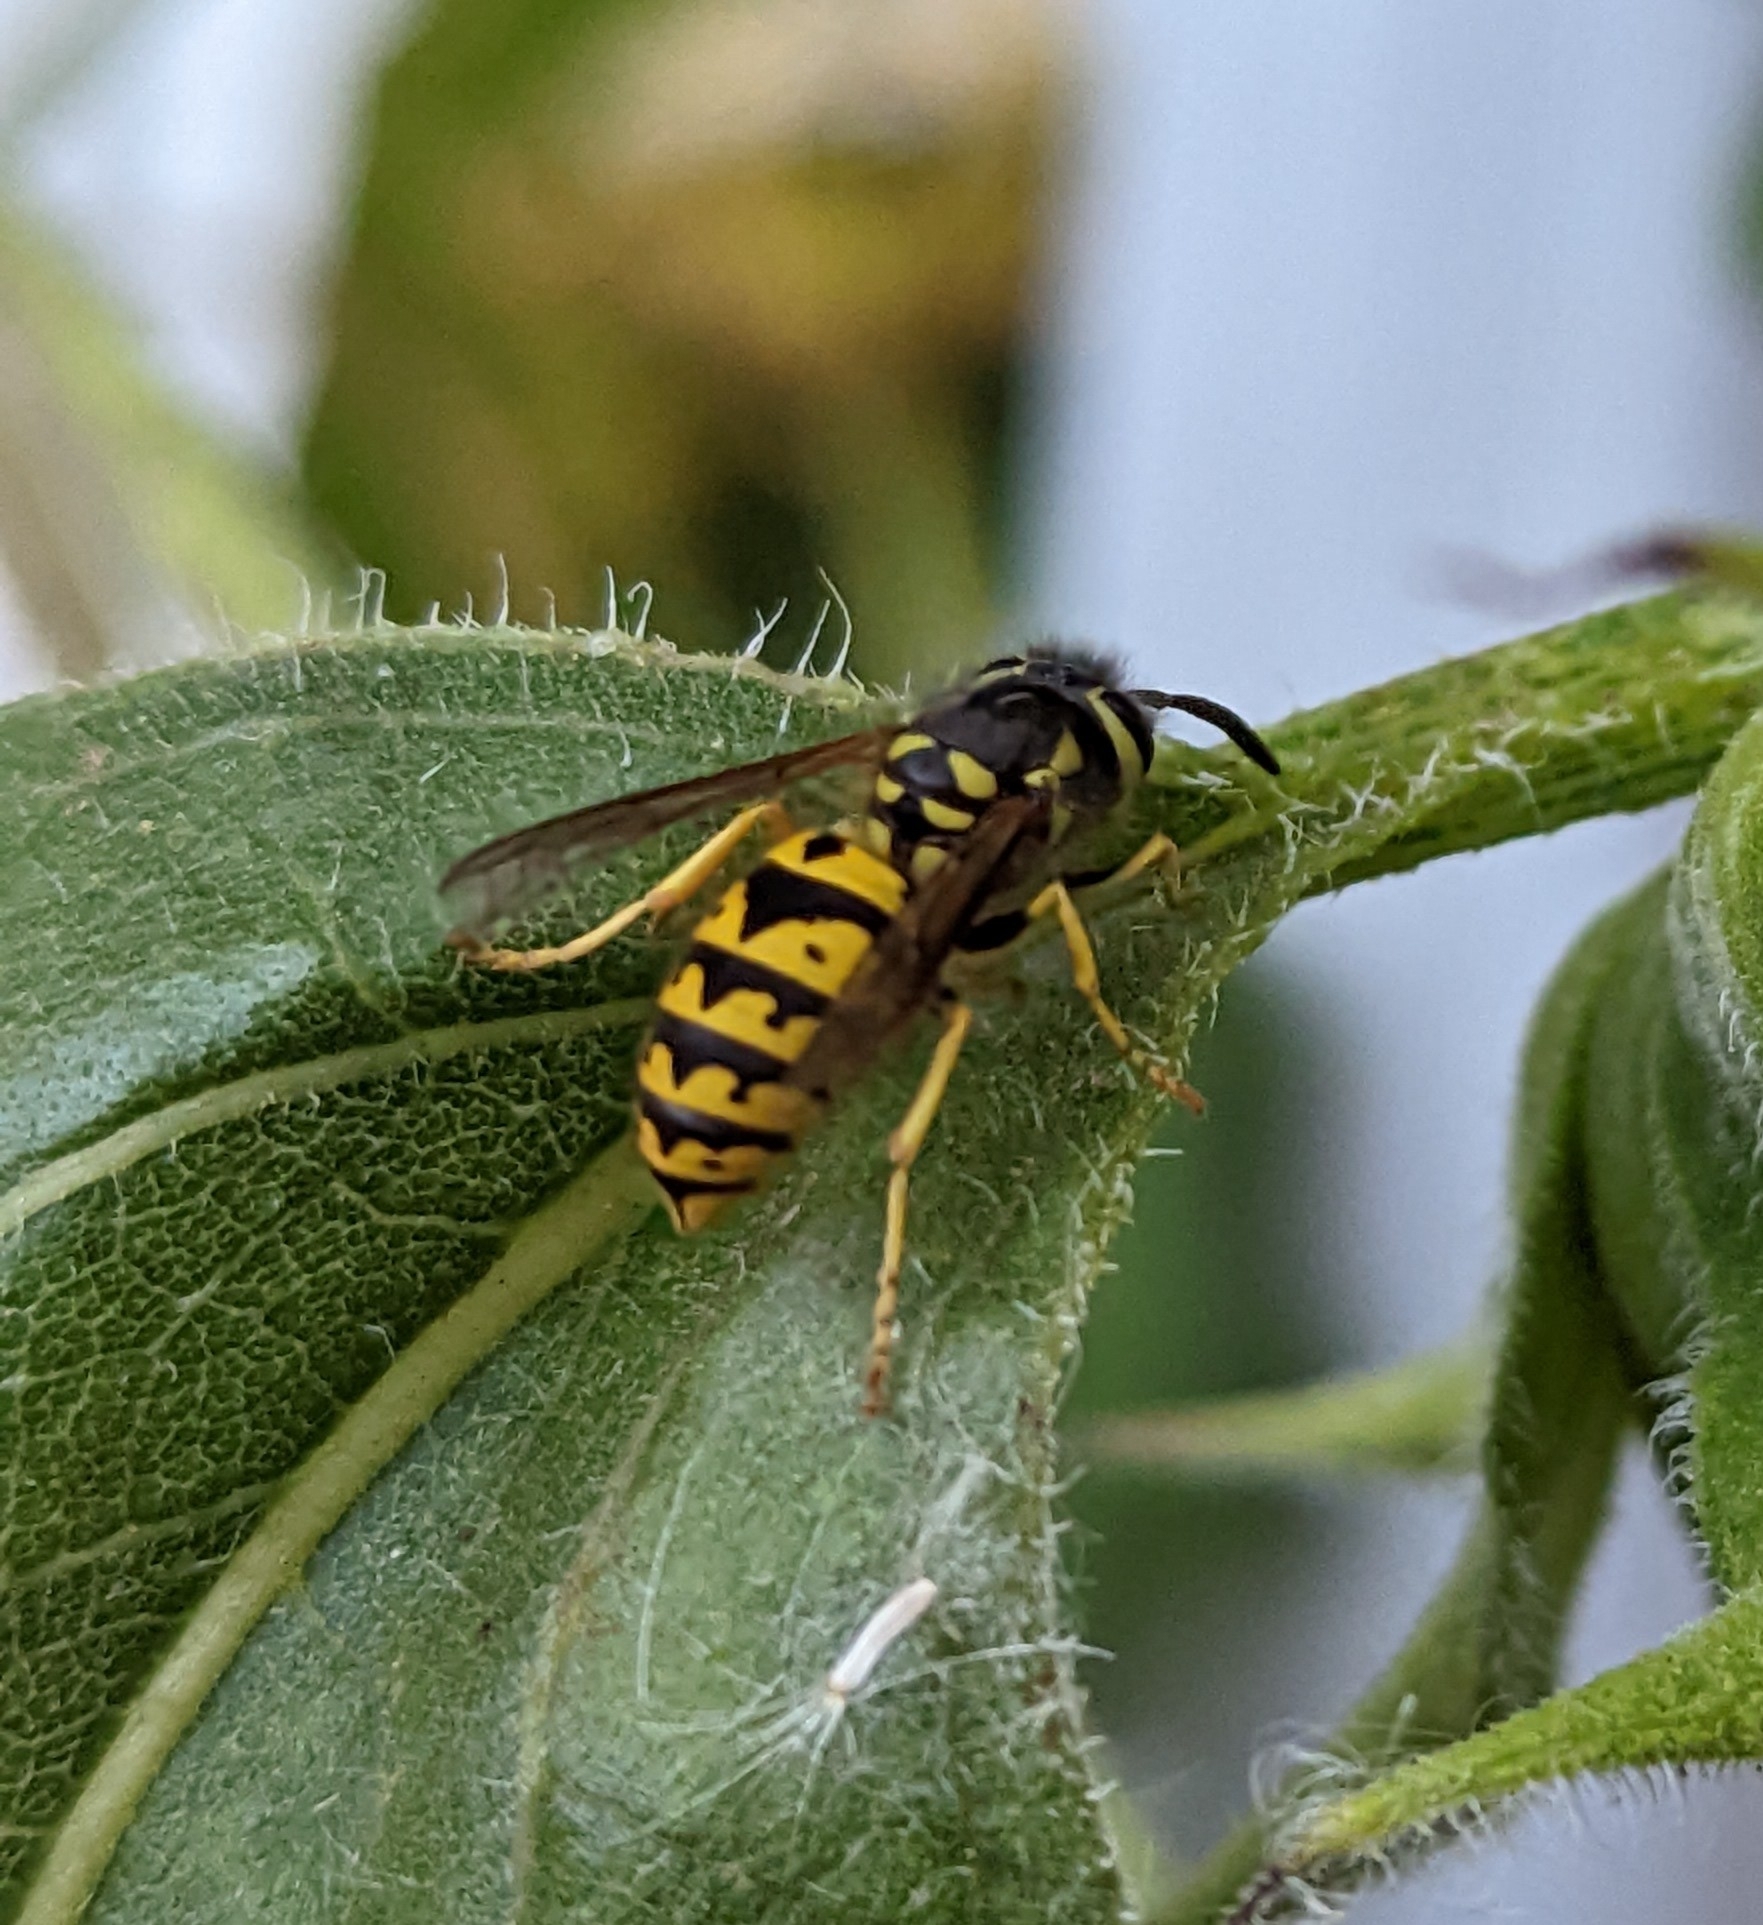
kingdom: Animalia
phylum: Arthropoda
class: Insecta
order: Hymenoptera
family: Vespidae
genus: Vespula
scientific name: Vespula pensylvanica
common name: Western yellowjacket
